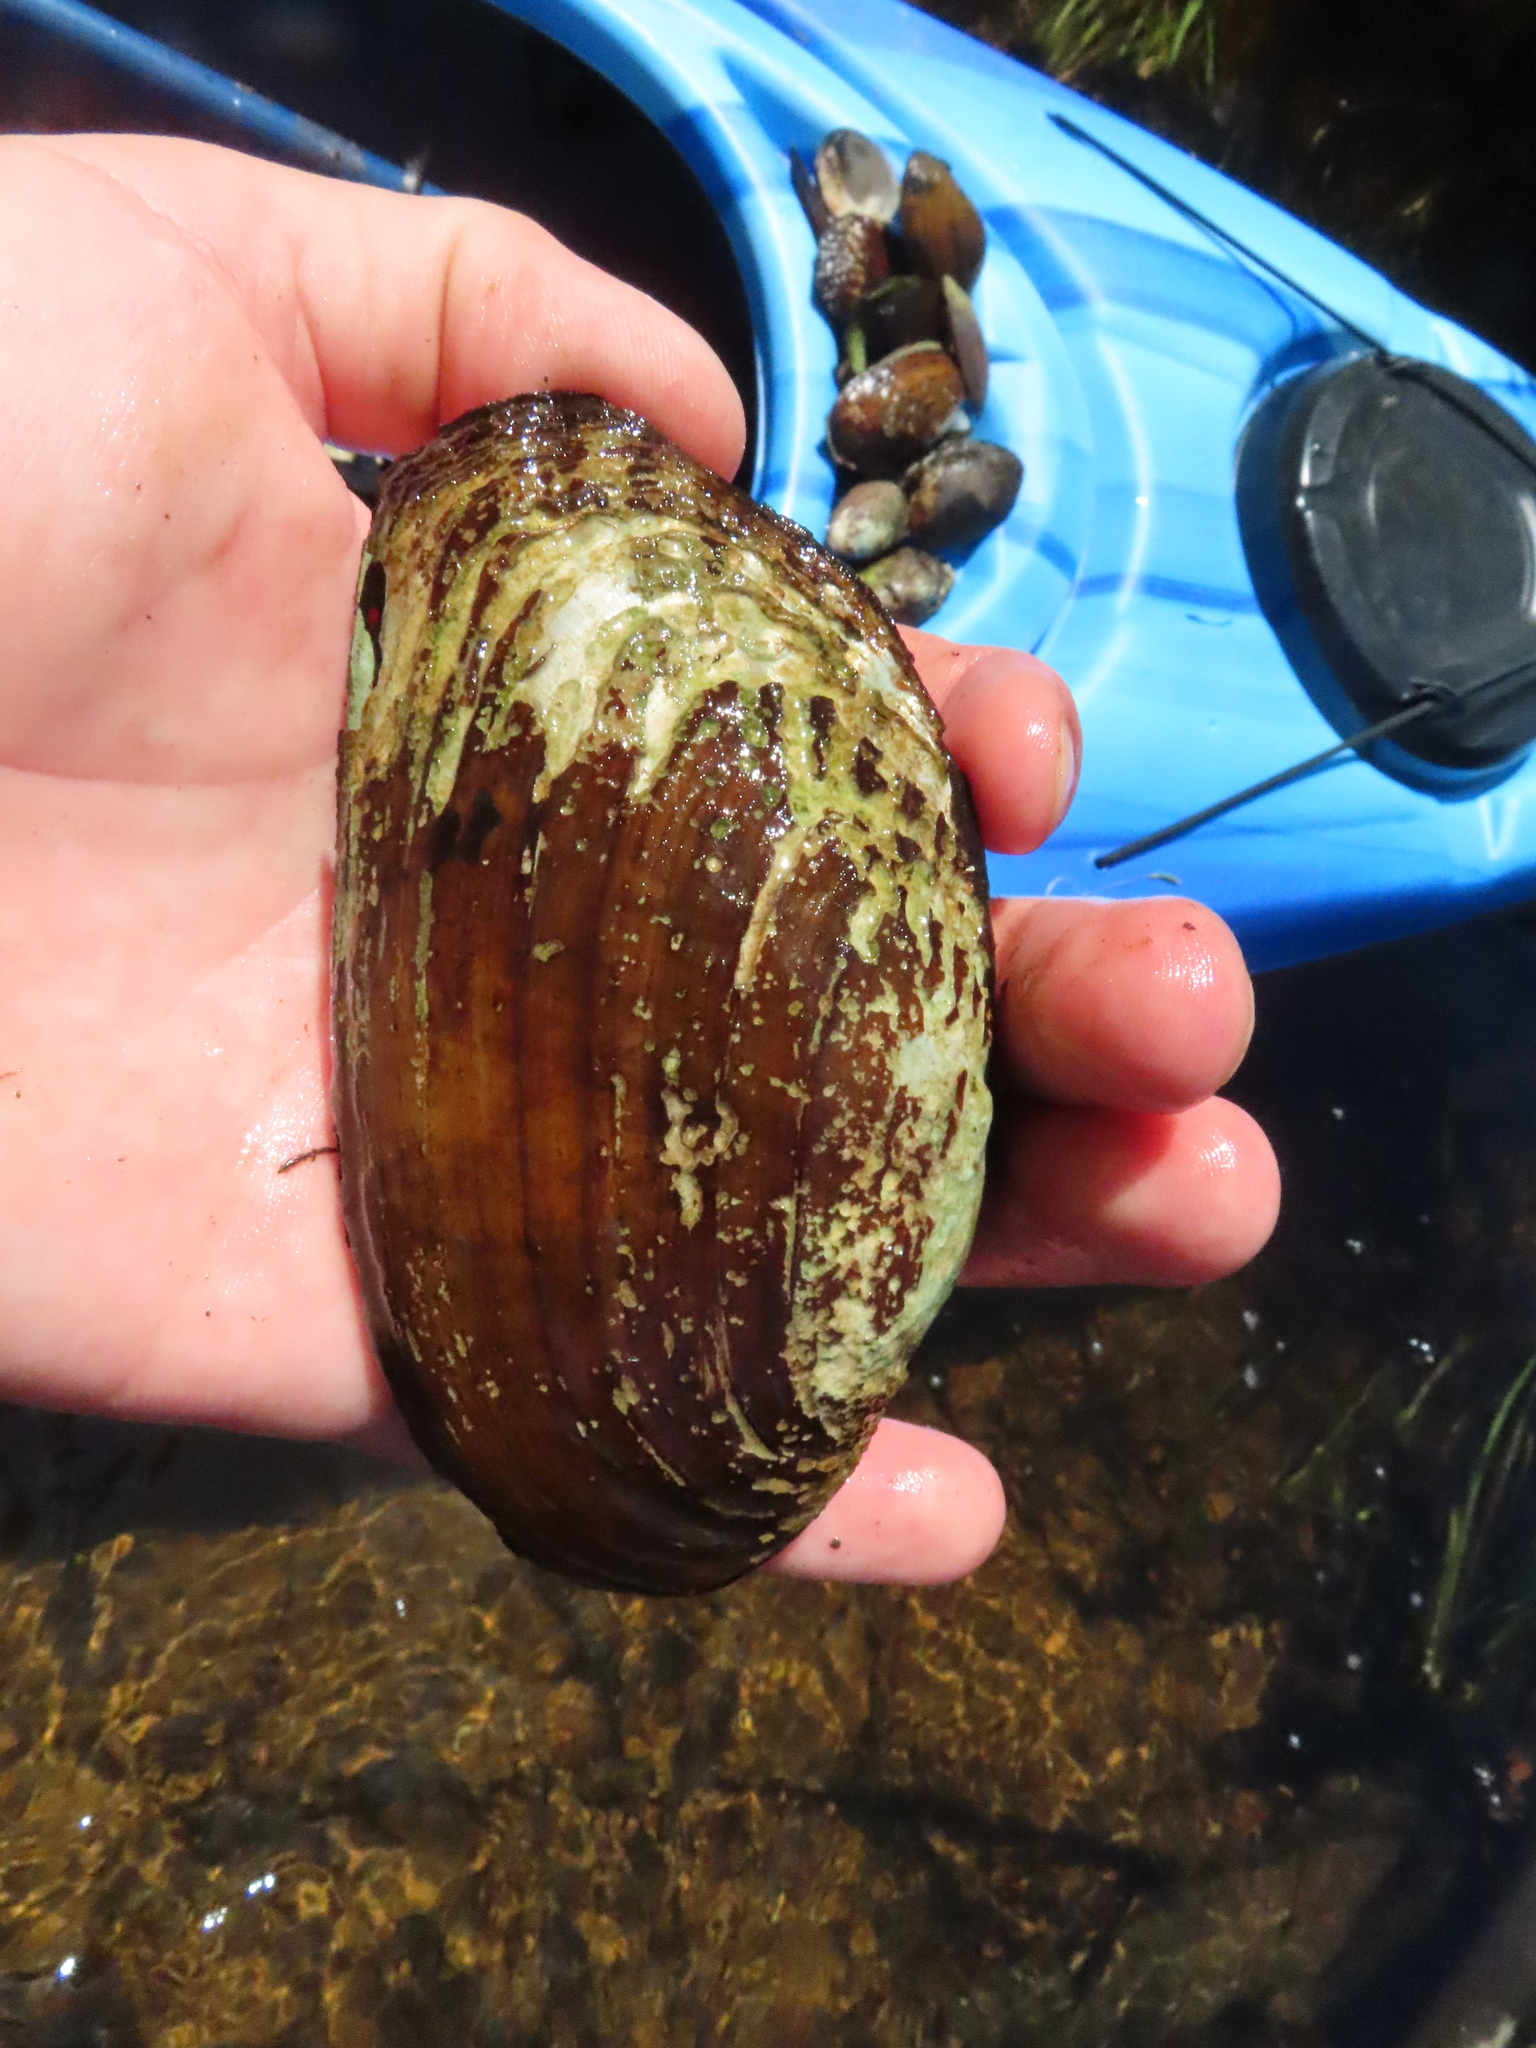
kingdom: Animalia
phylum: Mollusca
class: Bivalvia
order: Unionida
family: Unionidae
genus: Lasmigona
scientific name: Lasmigona costata
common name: Flutedshell
